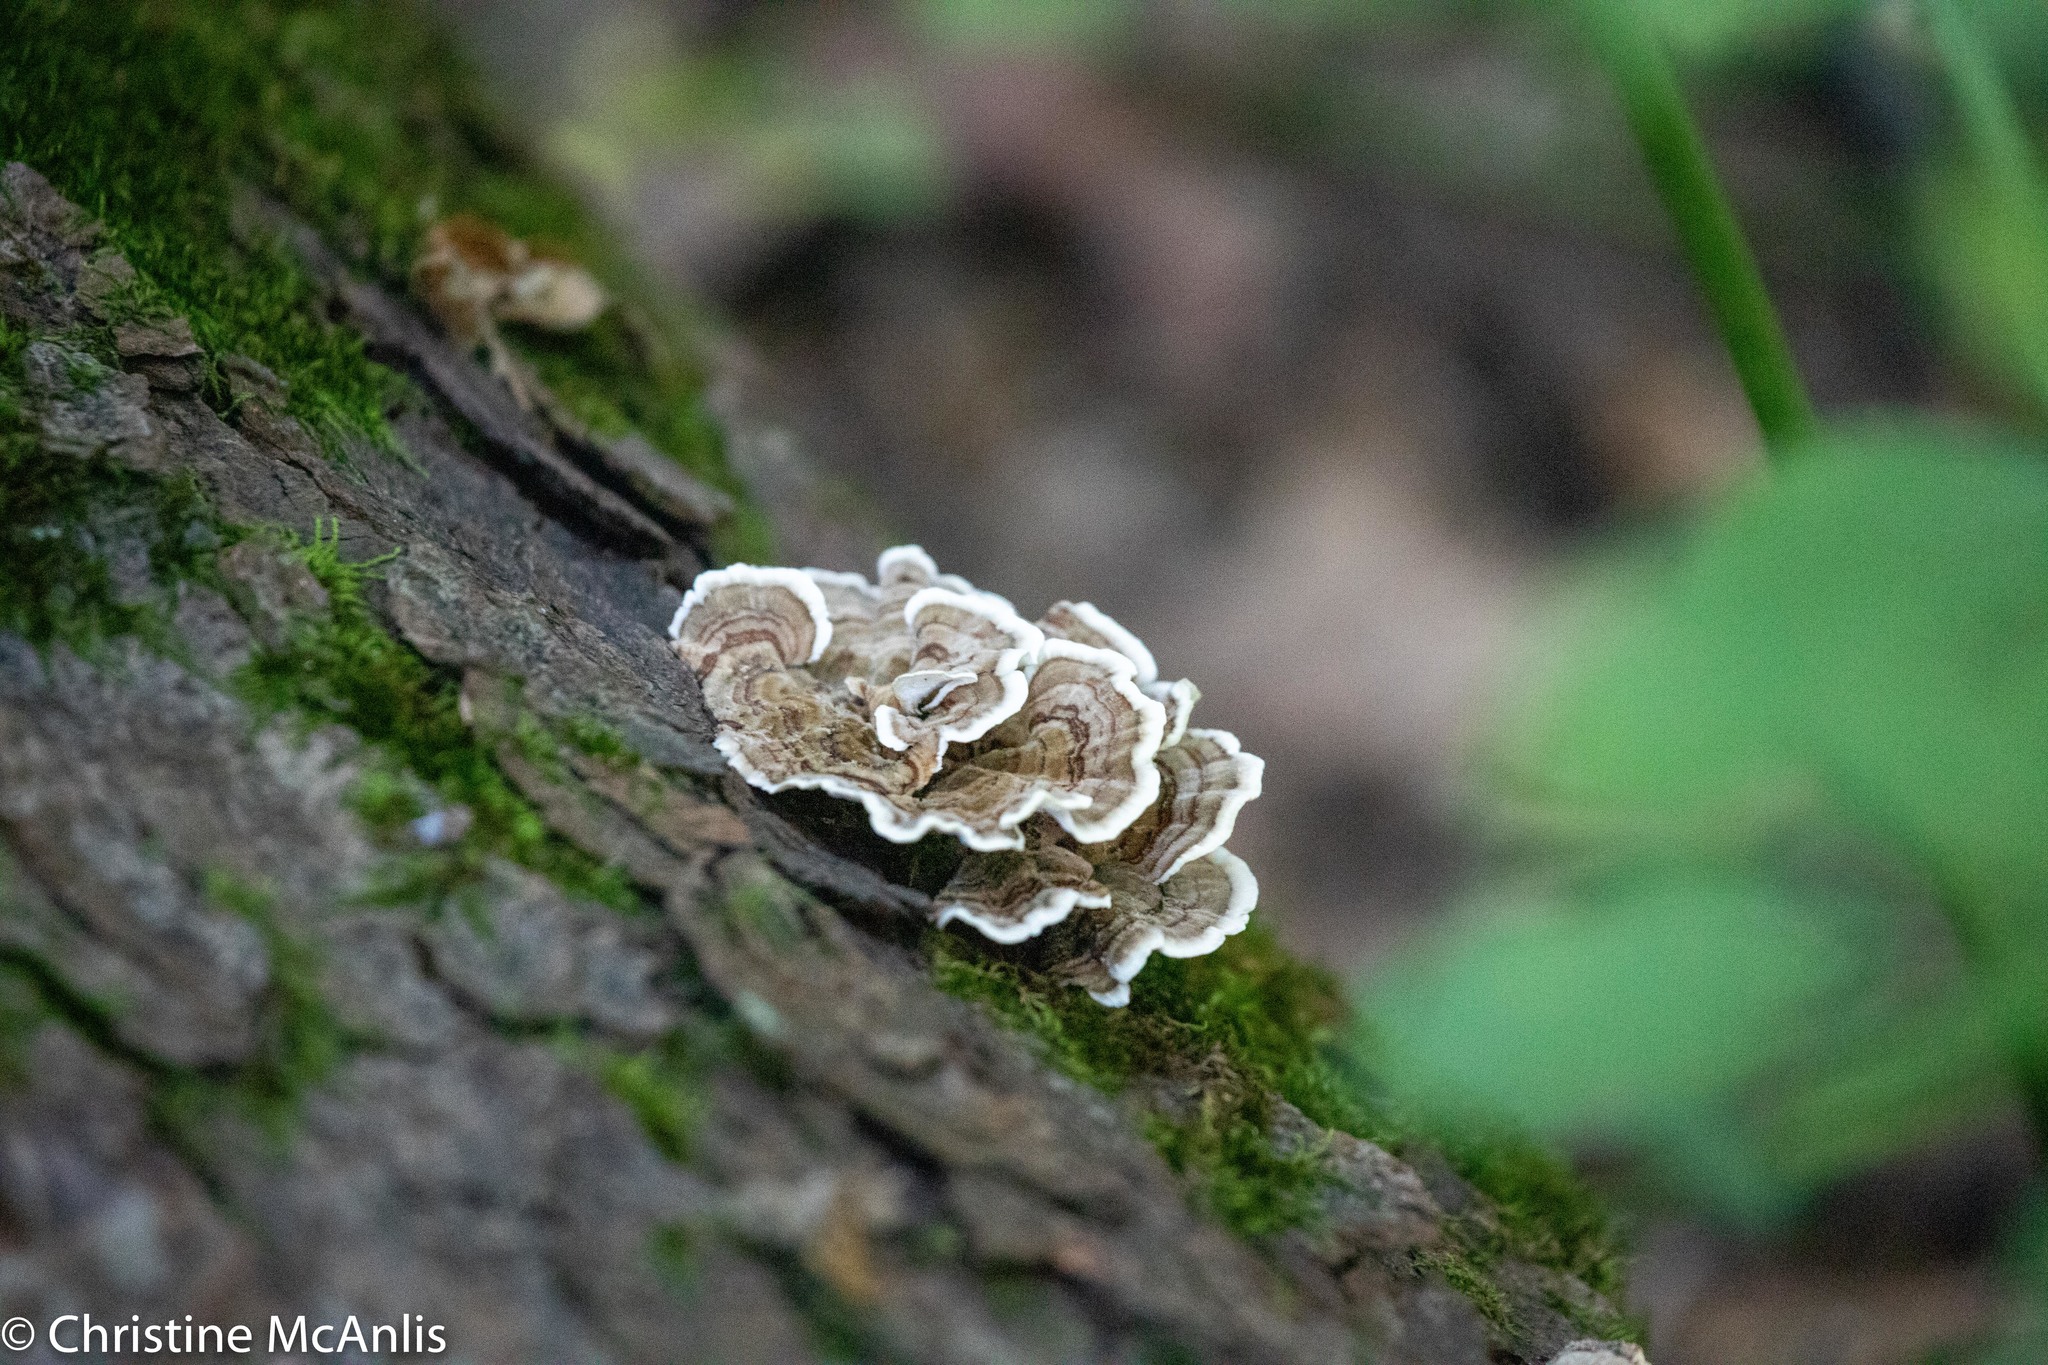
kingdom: Fungi
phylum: Basidiomycota
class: Agaricomycetes
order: Polyporales
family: Polyporaceae
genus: Trametes
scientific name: Trametes versicolor
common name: Turkeytail
